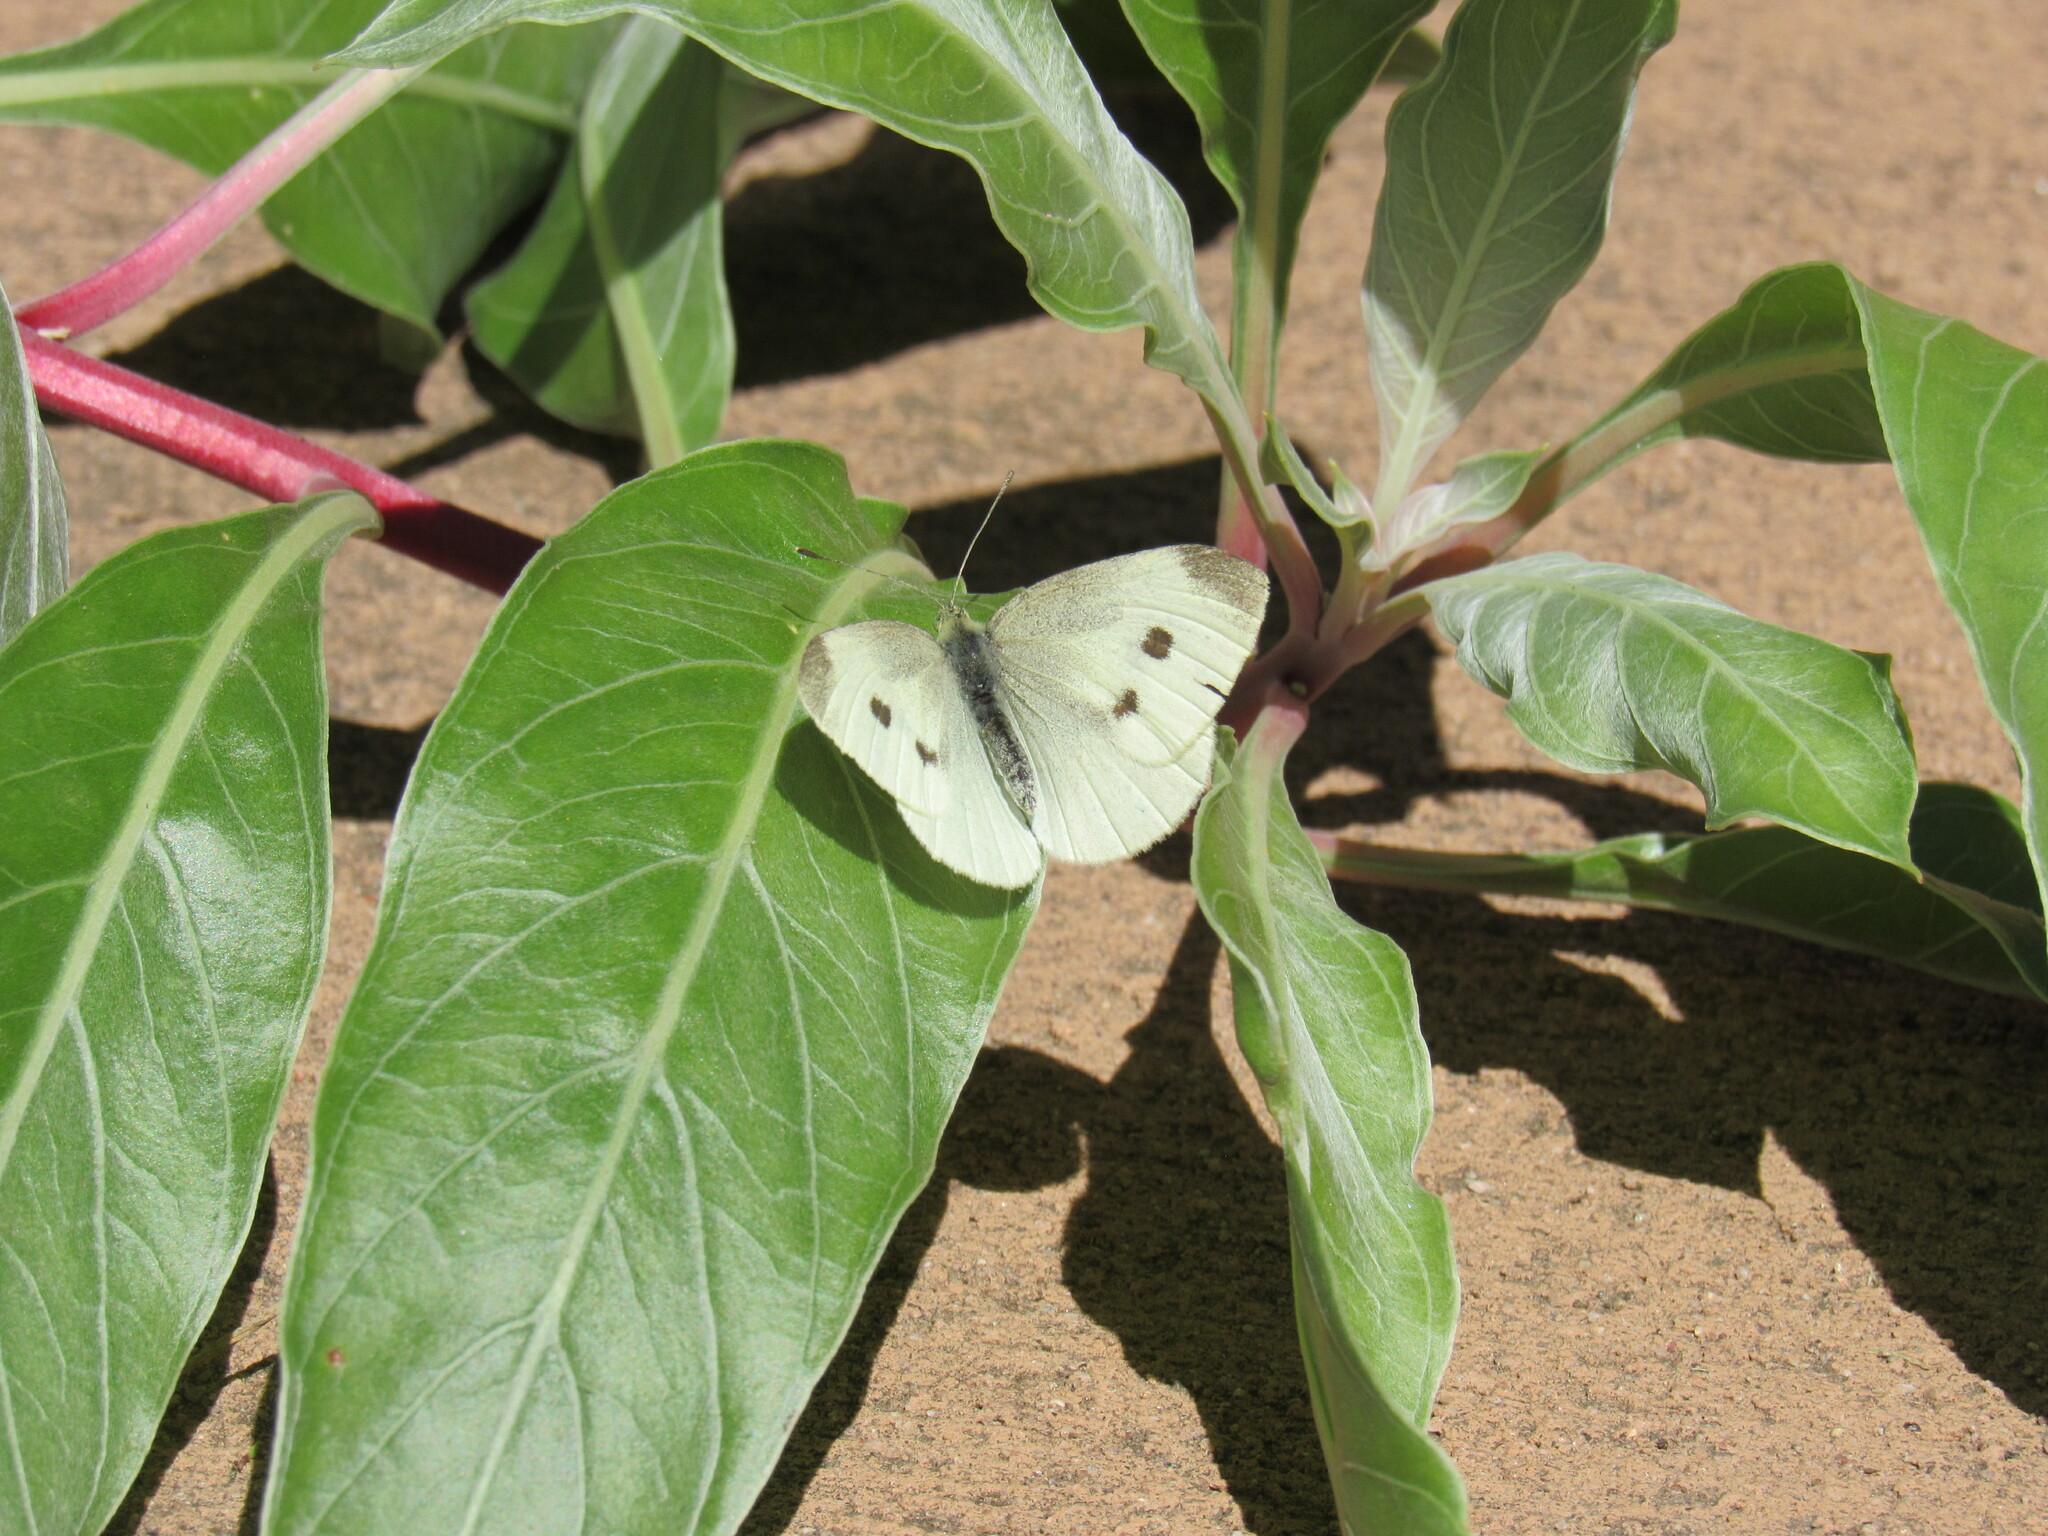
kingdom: Animalia
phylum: Arthropoda
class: Insecta
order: Lepidoptera
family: Pieridae
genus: Pieris
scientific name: Pieris rapae
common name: Small white
